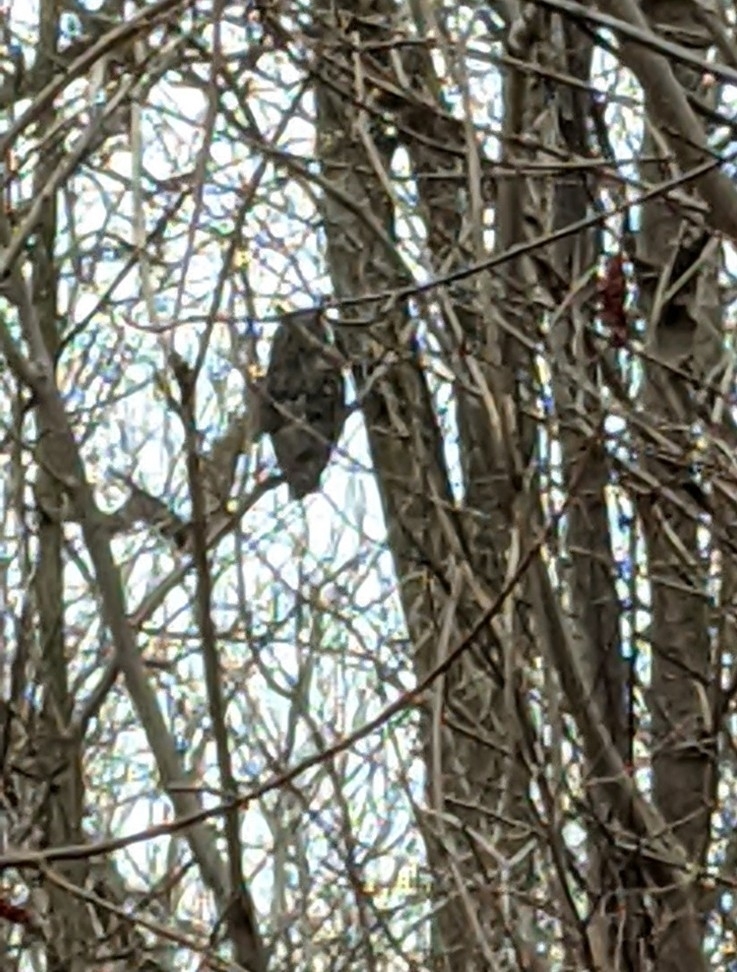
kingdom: Animalia
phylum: Chordata
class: Aves
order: Strigiformes
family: Strigidae
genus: Asio
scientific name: Asio otus
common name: Long-eared owl
